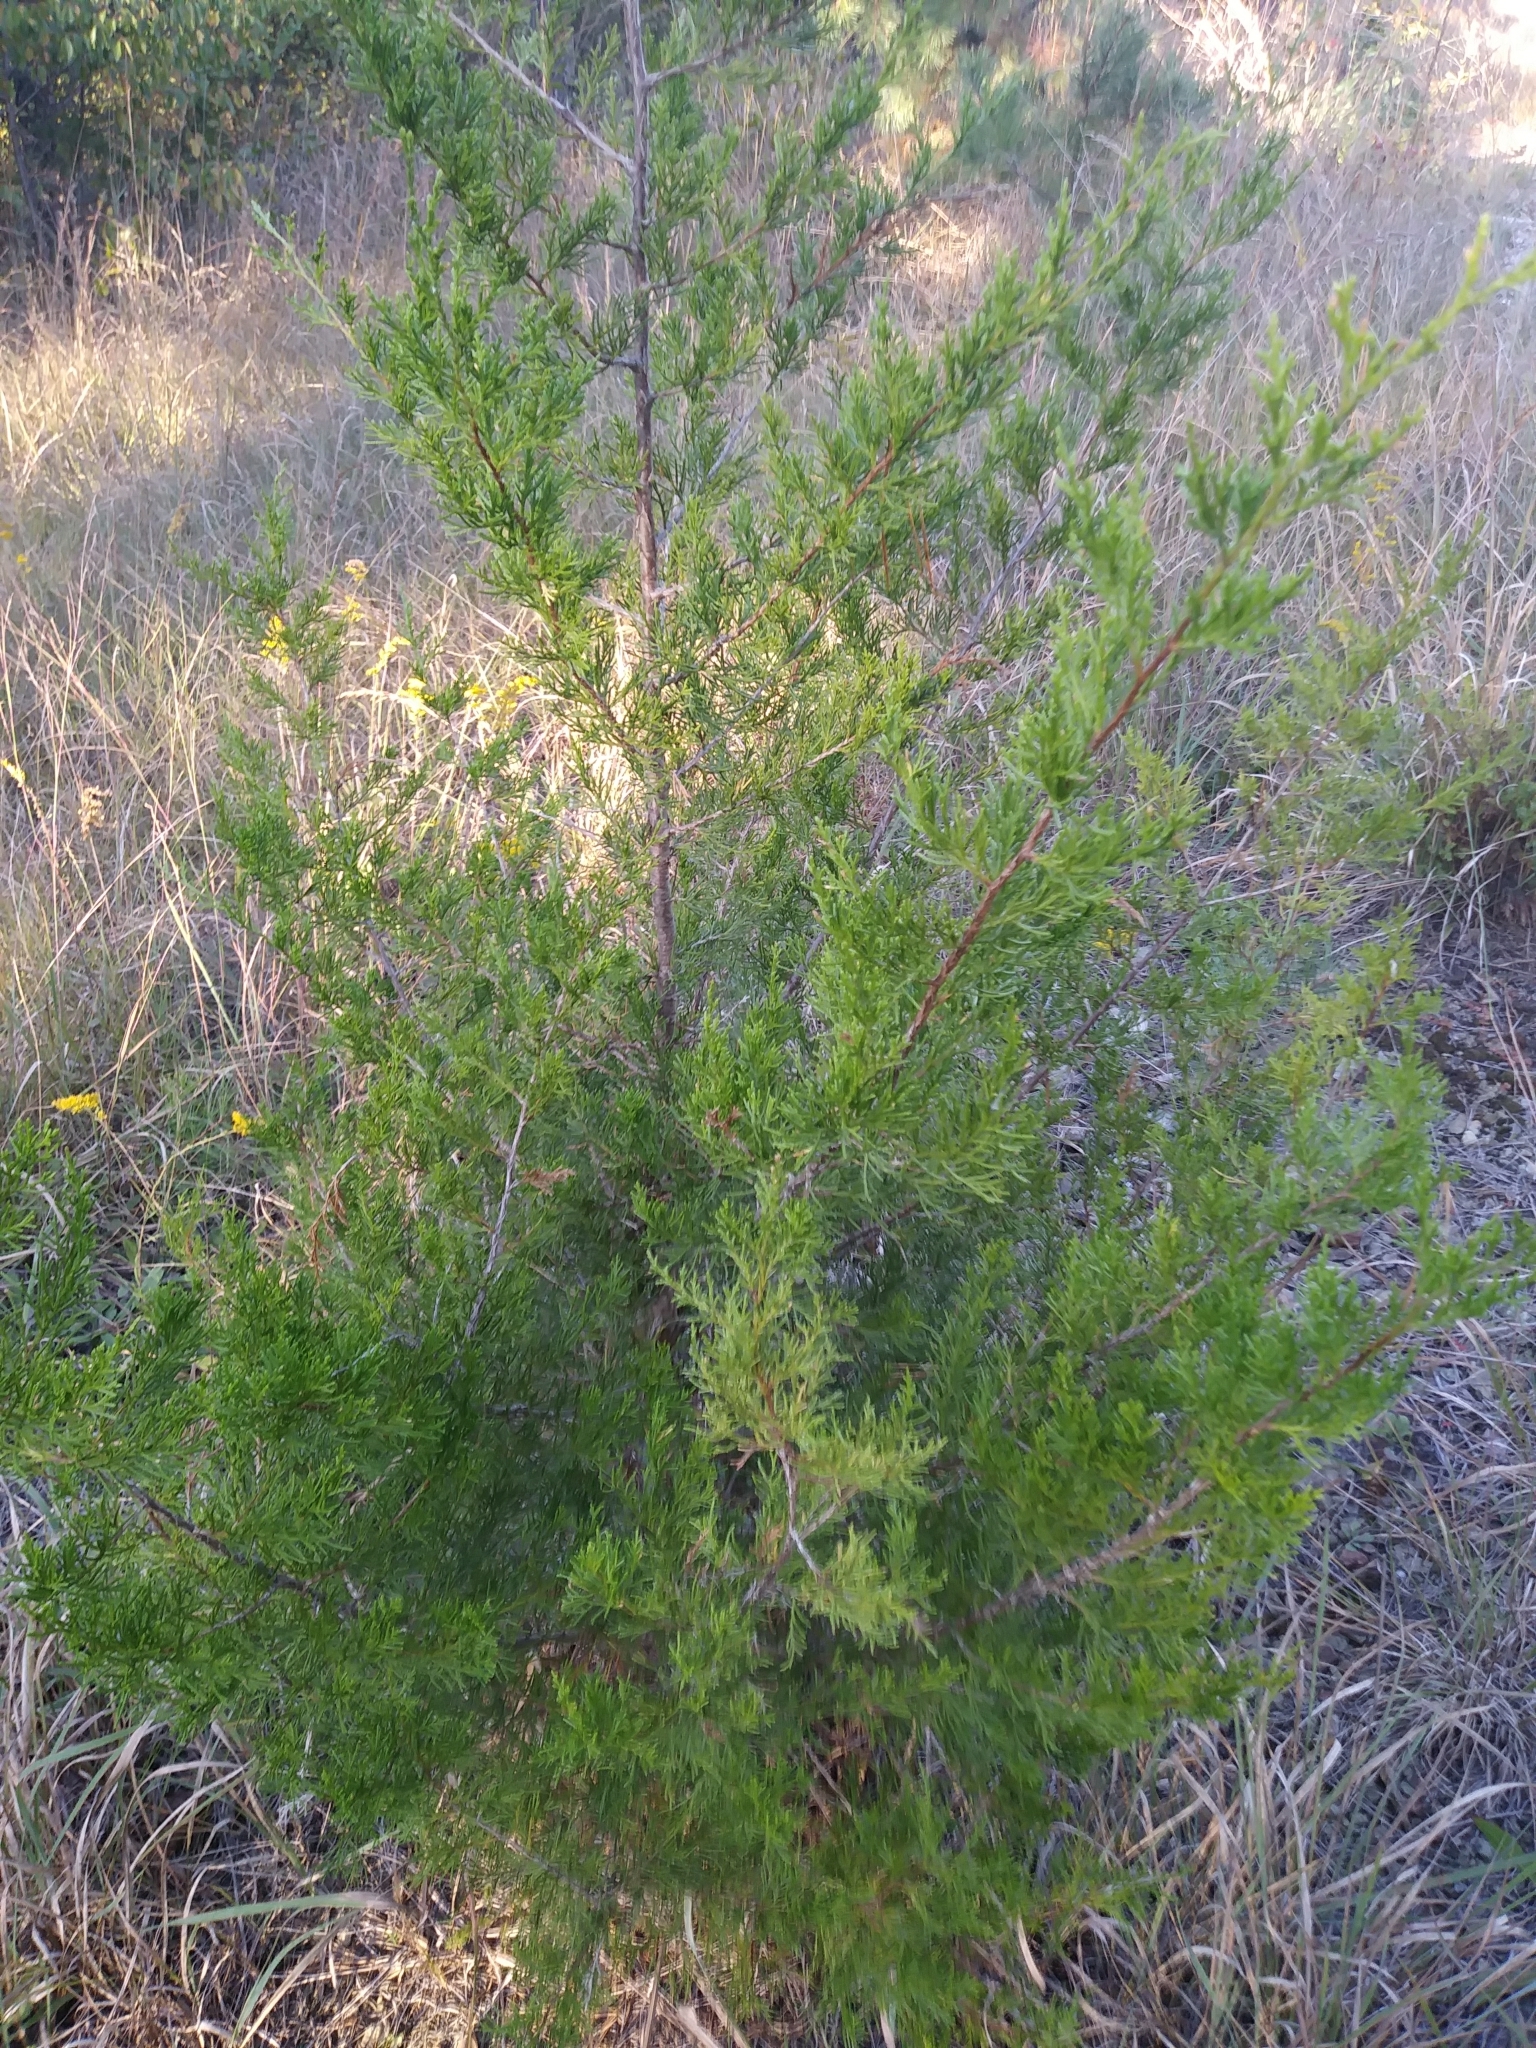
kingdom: Plantae
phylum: Tracheophyta
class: Pinopsida
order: Pinales
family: Cupressaceae
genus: Juniperus
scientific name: Juniperus virginiana
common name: Red juniper
